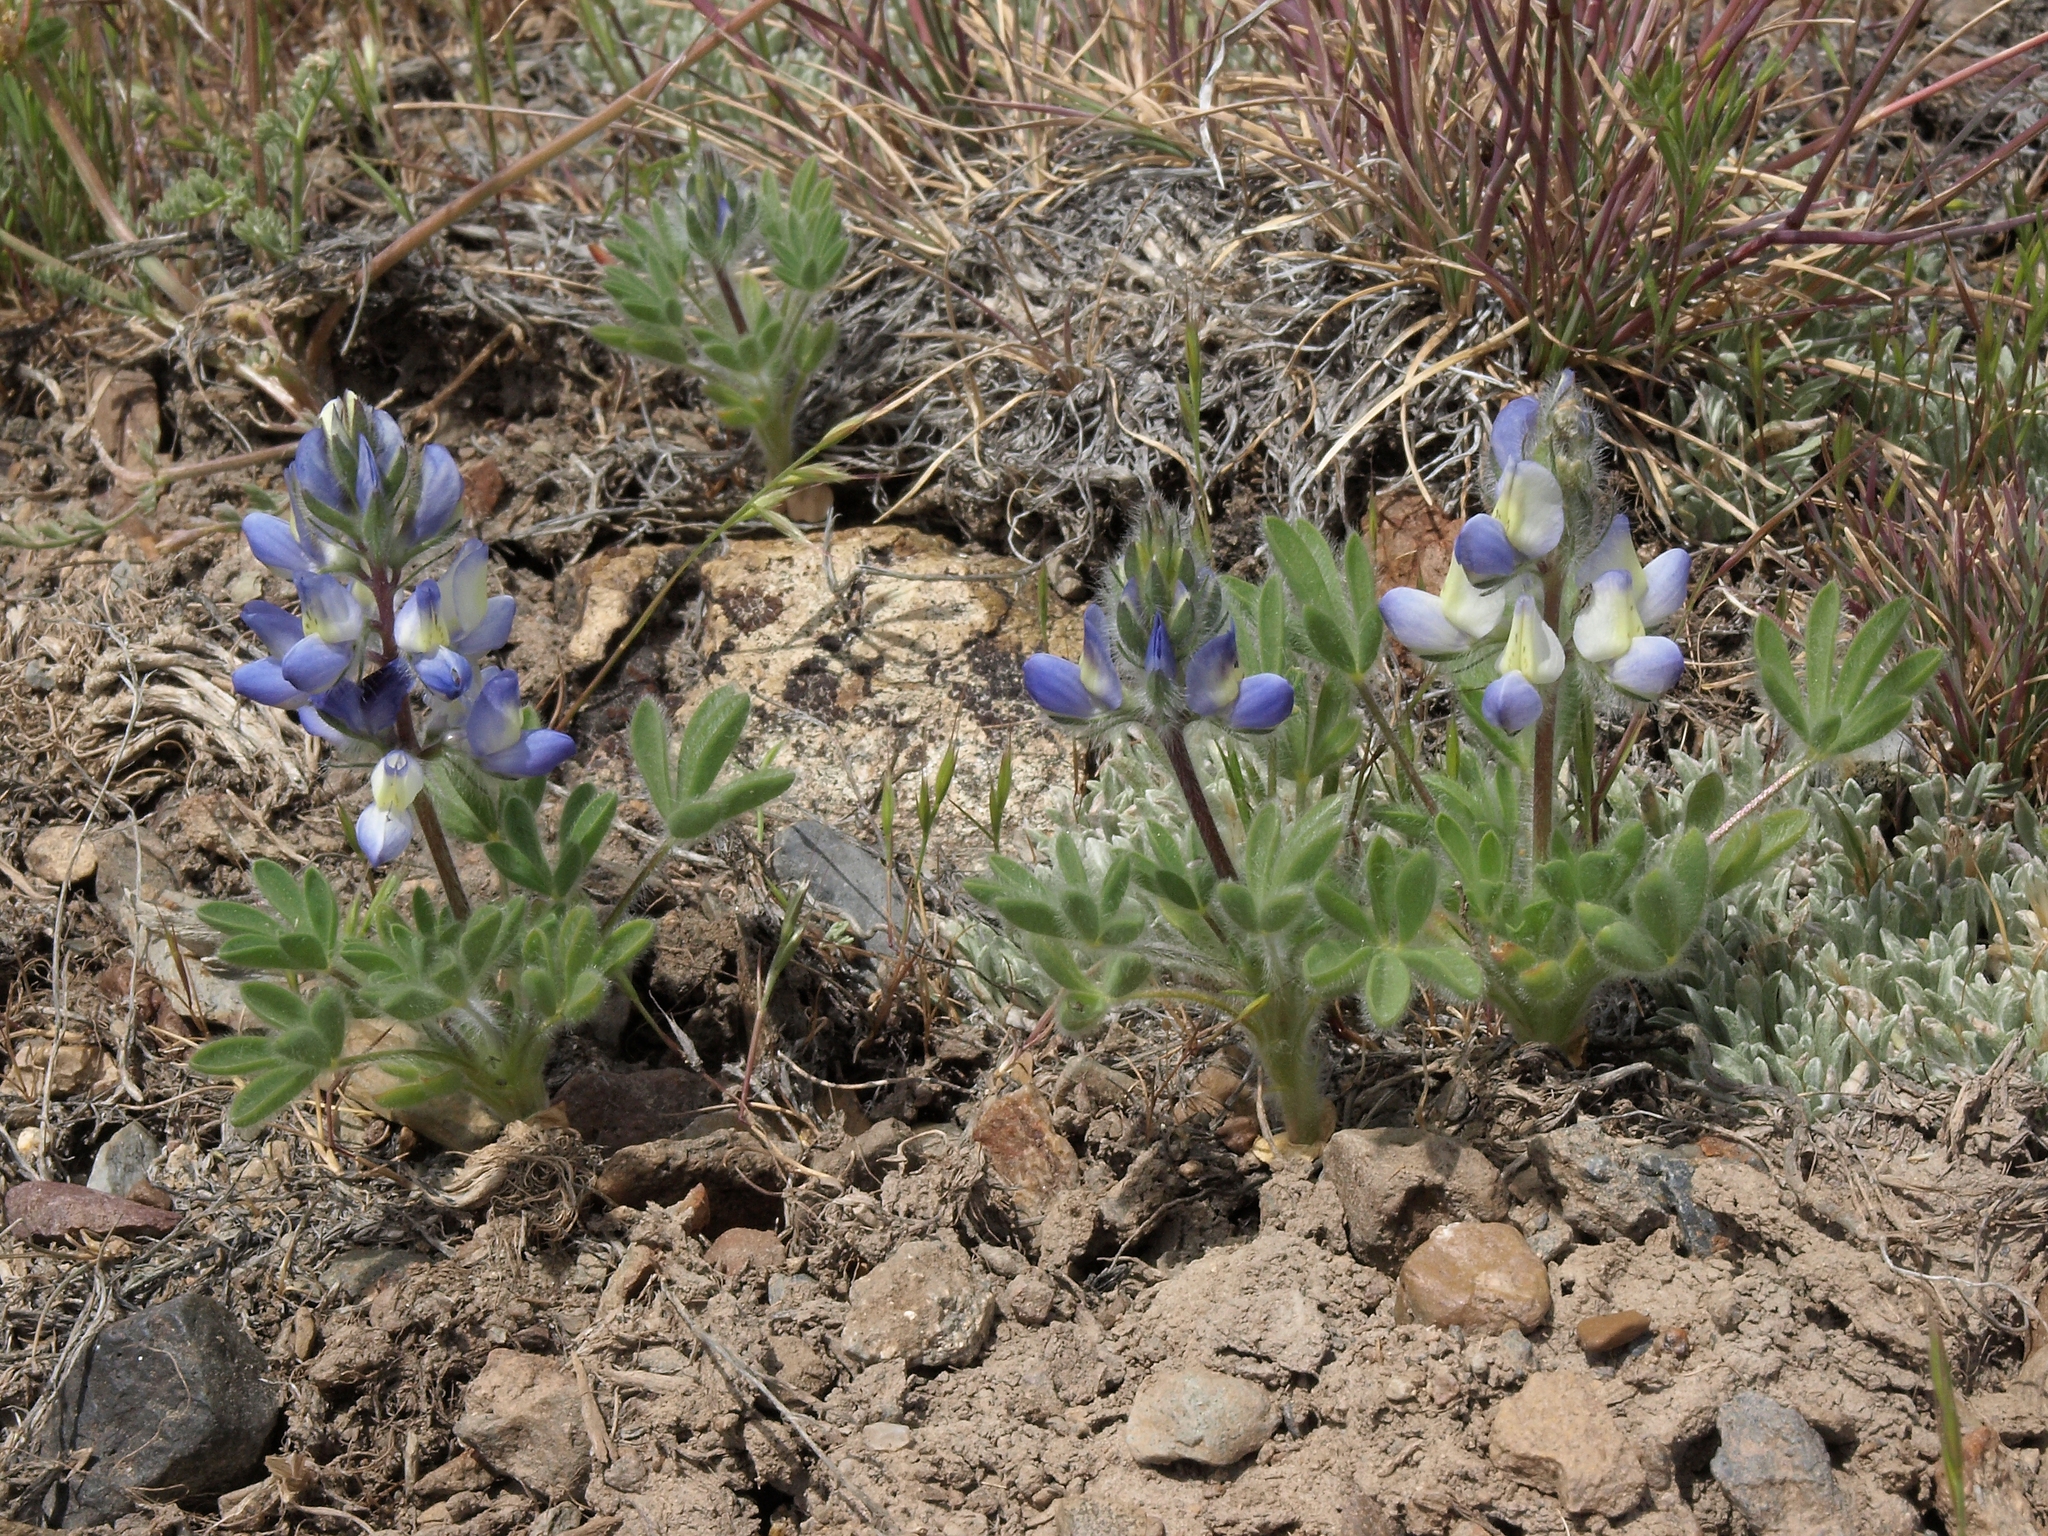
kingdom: Plantae
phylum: Tracheophyta
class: Magnoliopsida
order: Fabales
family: Fabaceae
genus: Lupinus
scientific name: Lupinus malacophyllus
